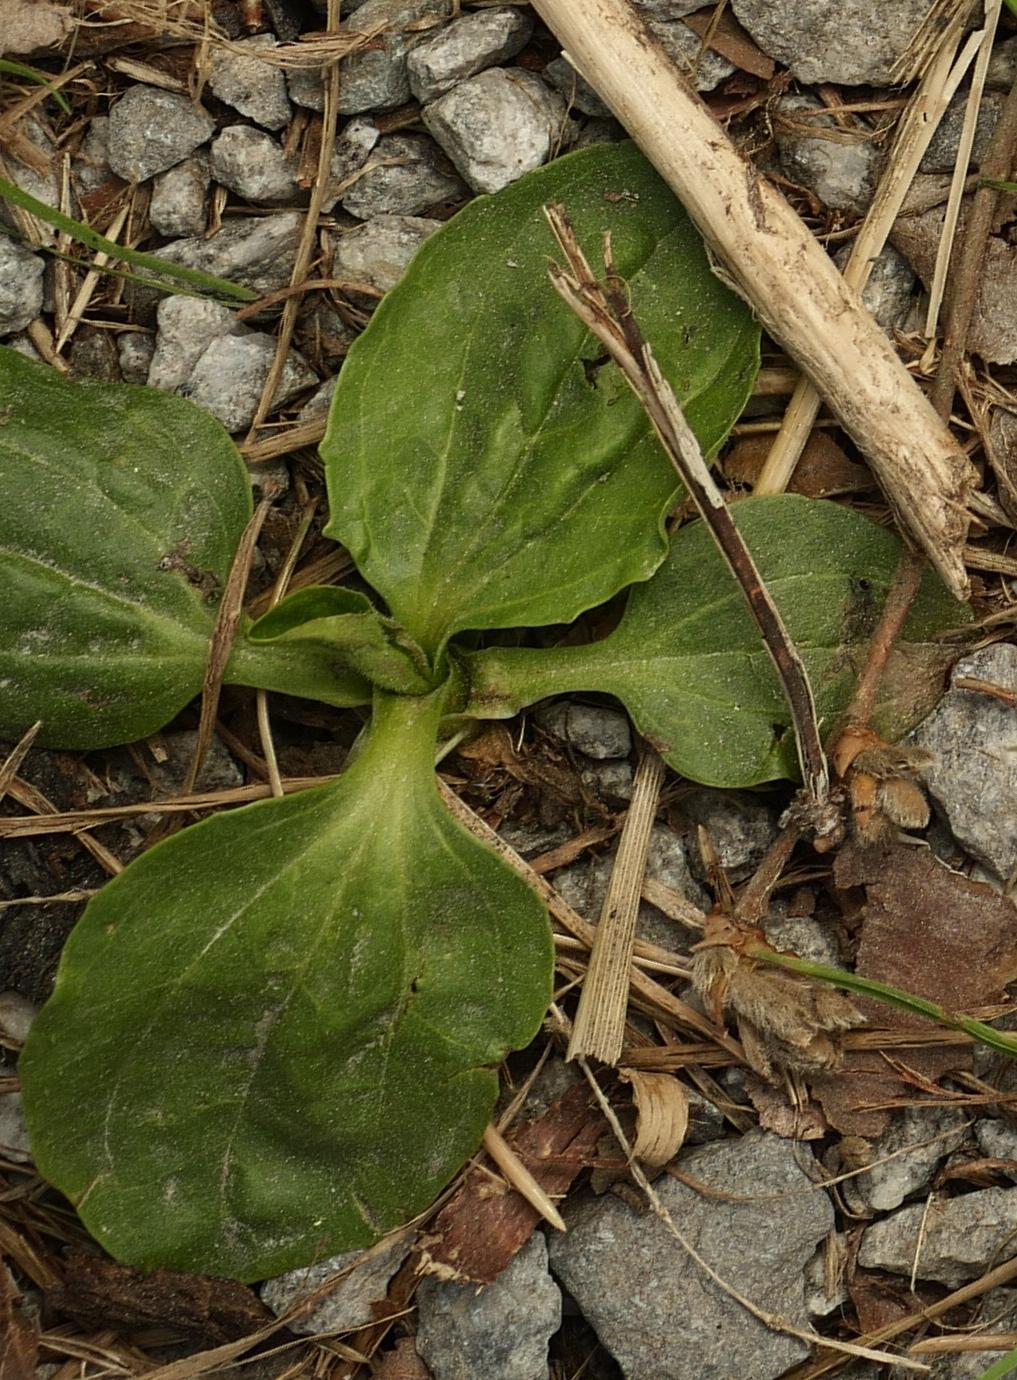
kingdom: Plantae
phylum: Tracheophyta
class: Magnoliopsida
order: Lamiales
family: Plantaginaceae
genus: Plantago
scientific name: Plantago major
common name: Common plantain
